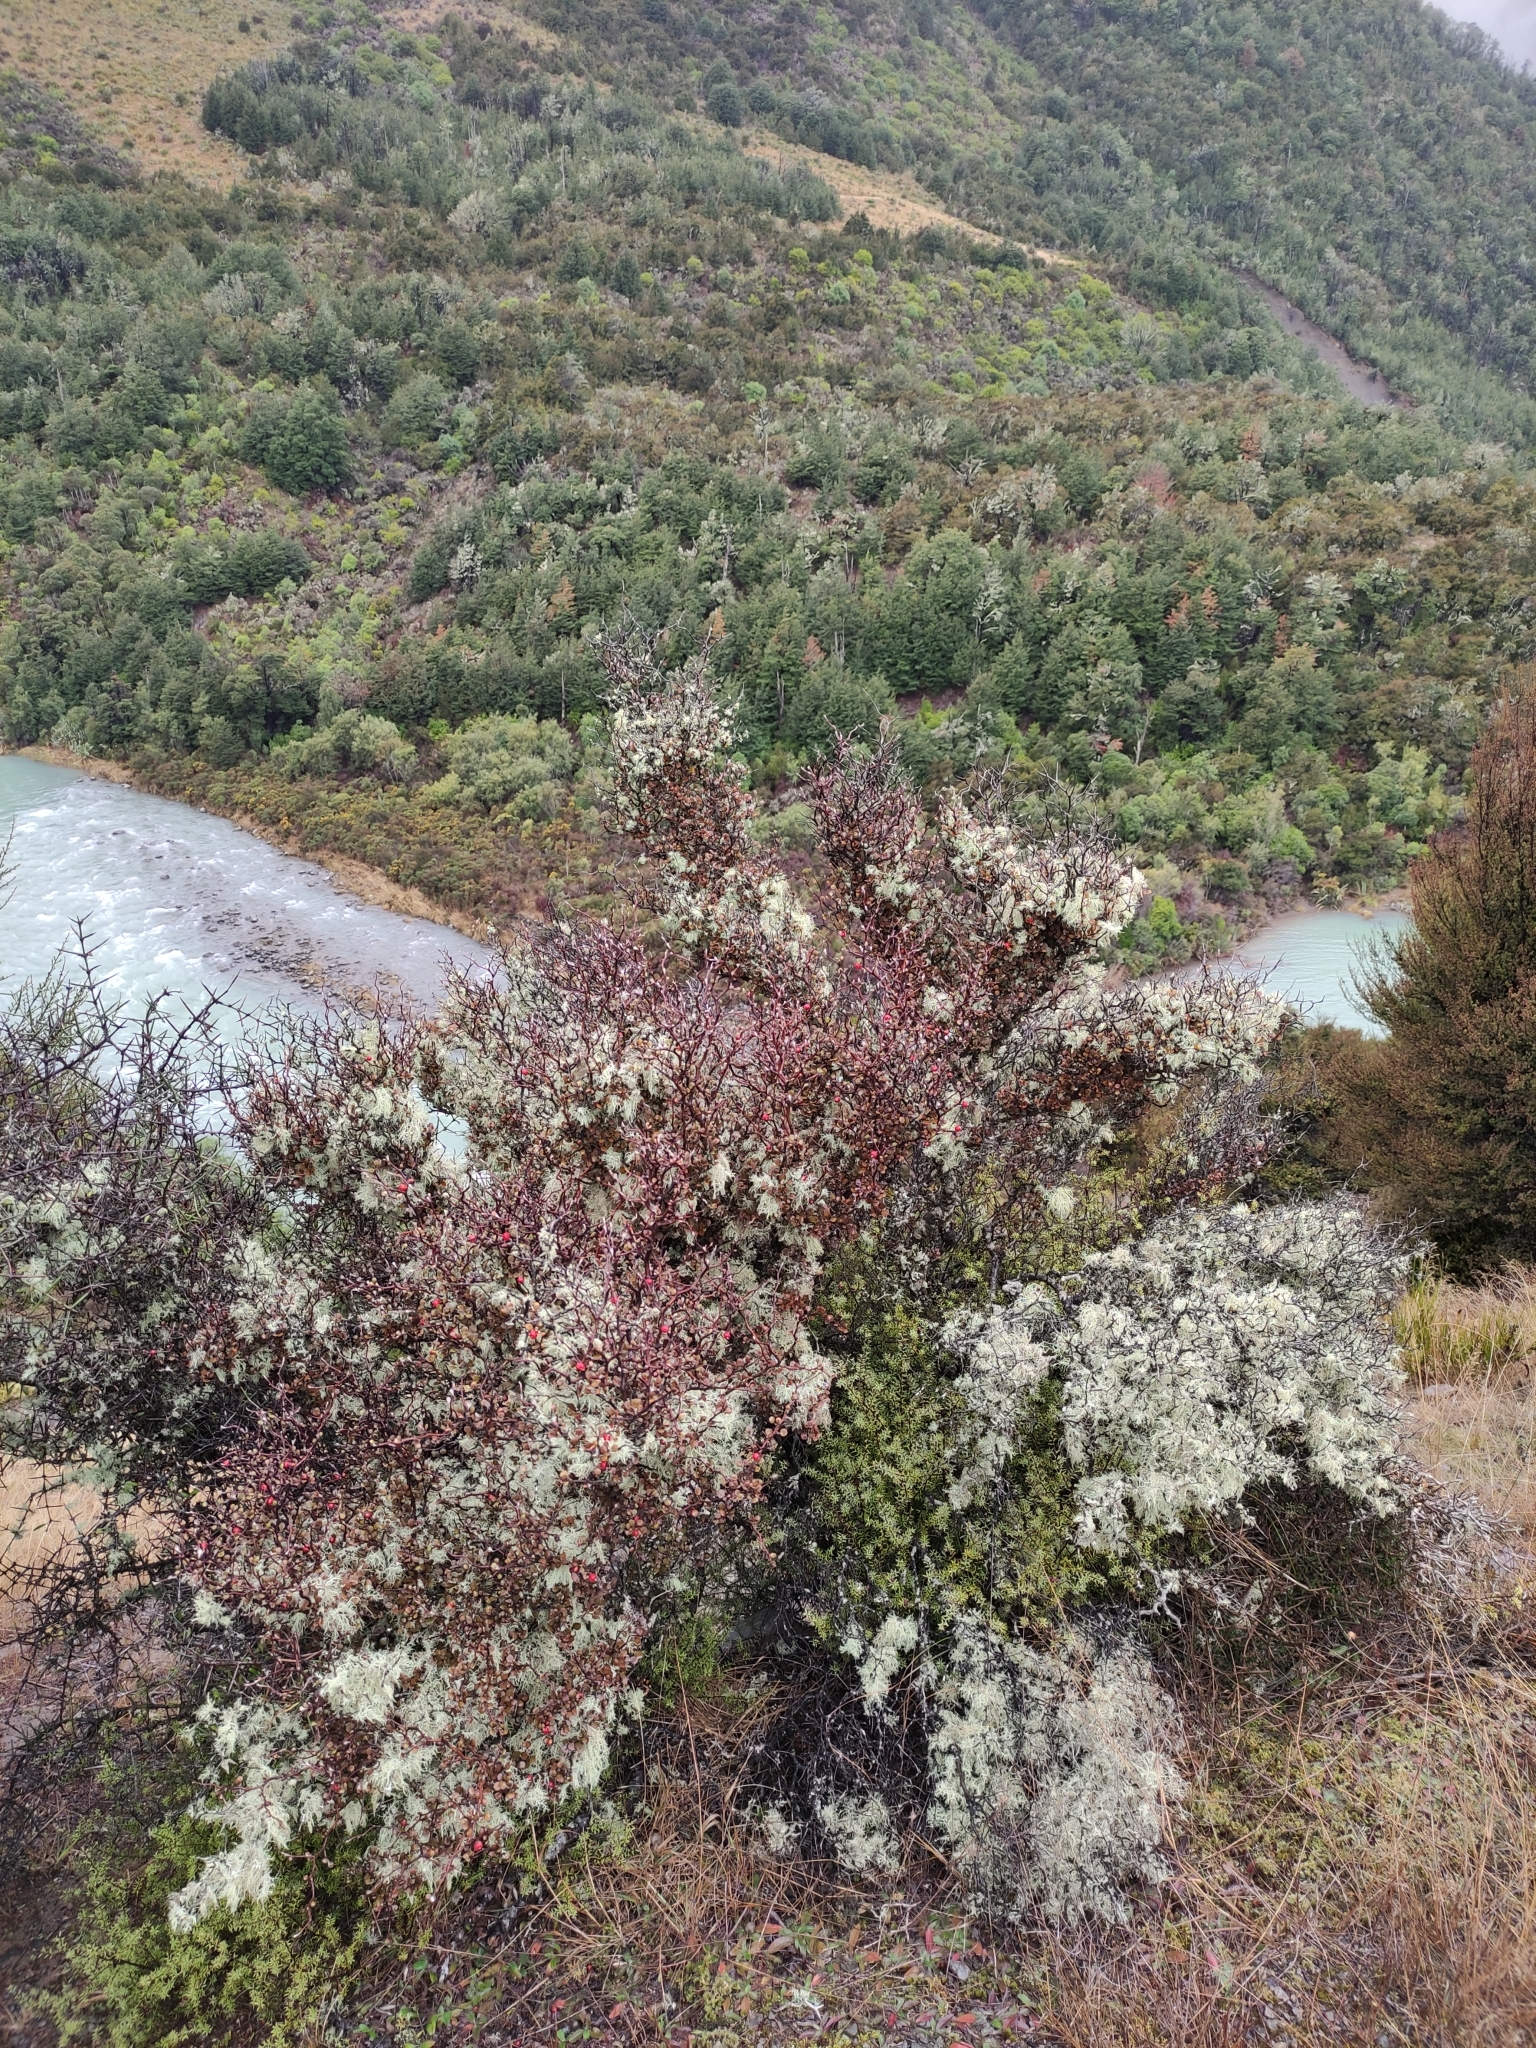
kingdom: Plantae
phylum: Tracheophyta
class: Magnoliopsida
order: Asterales
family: Argophyllaceae
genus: Corokia
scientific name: Corokia cotoneaster
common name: Wire nettingbush
